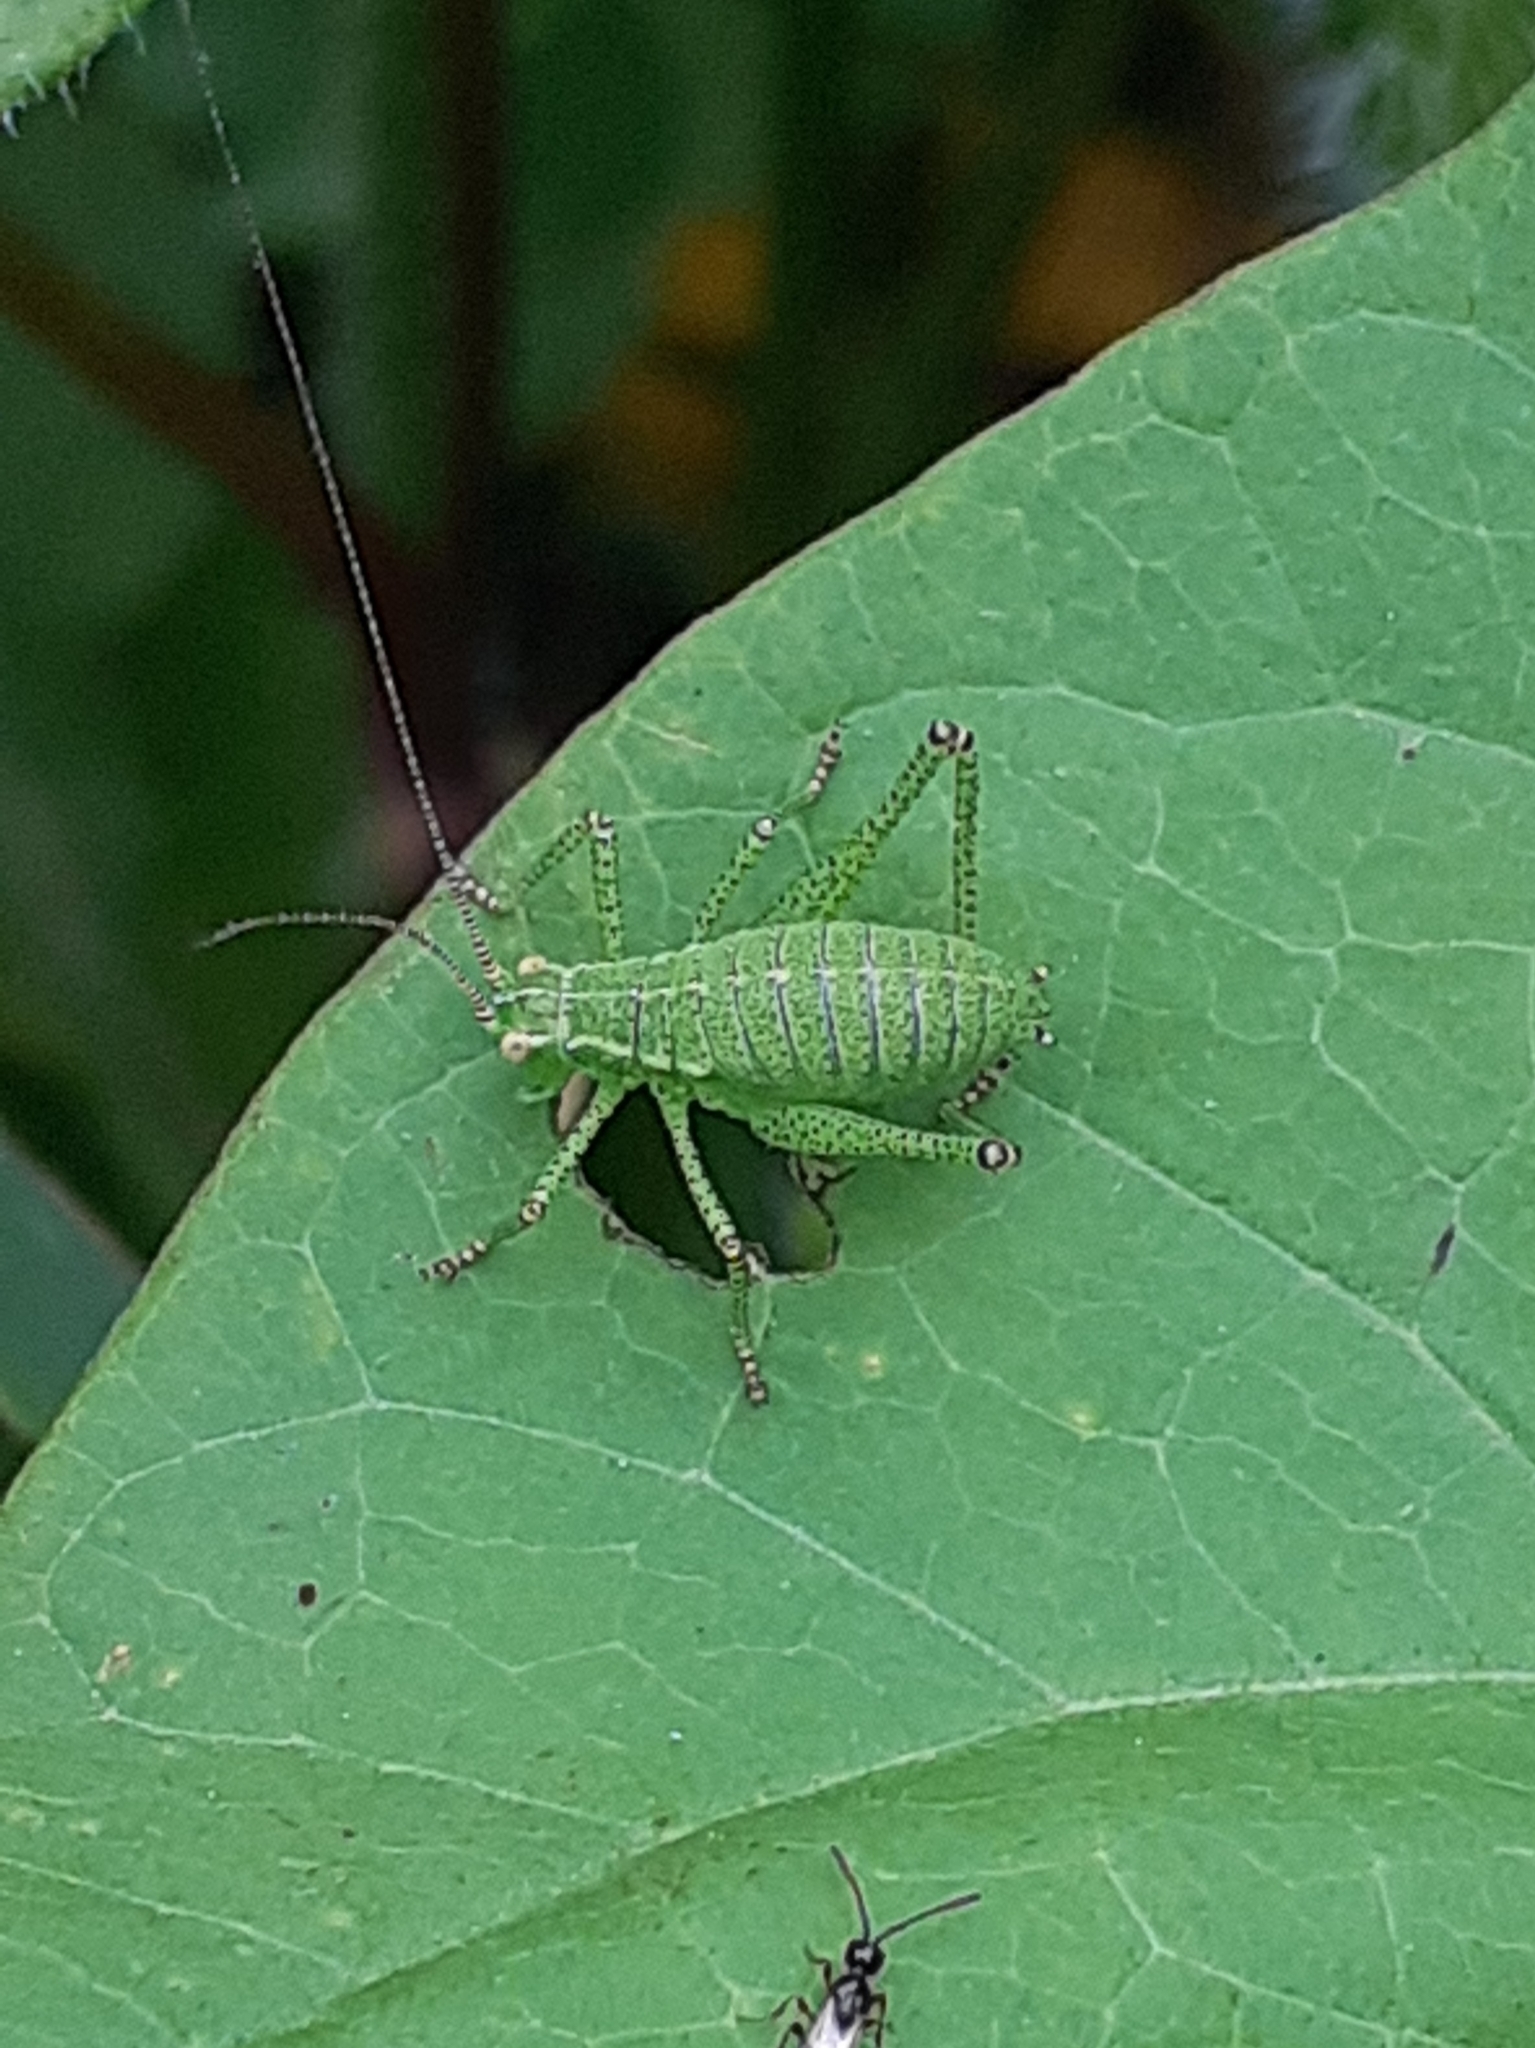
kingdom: Animalia
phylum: Arthropoda
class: Insecta
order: Orthoptera
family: Tettigoniidae
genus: Leptophyes
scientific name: Leptophyes punctatissima
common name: Speckled bush-cricket
